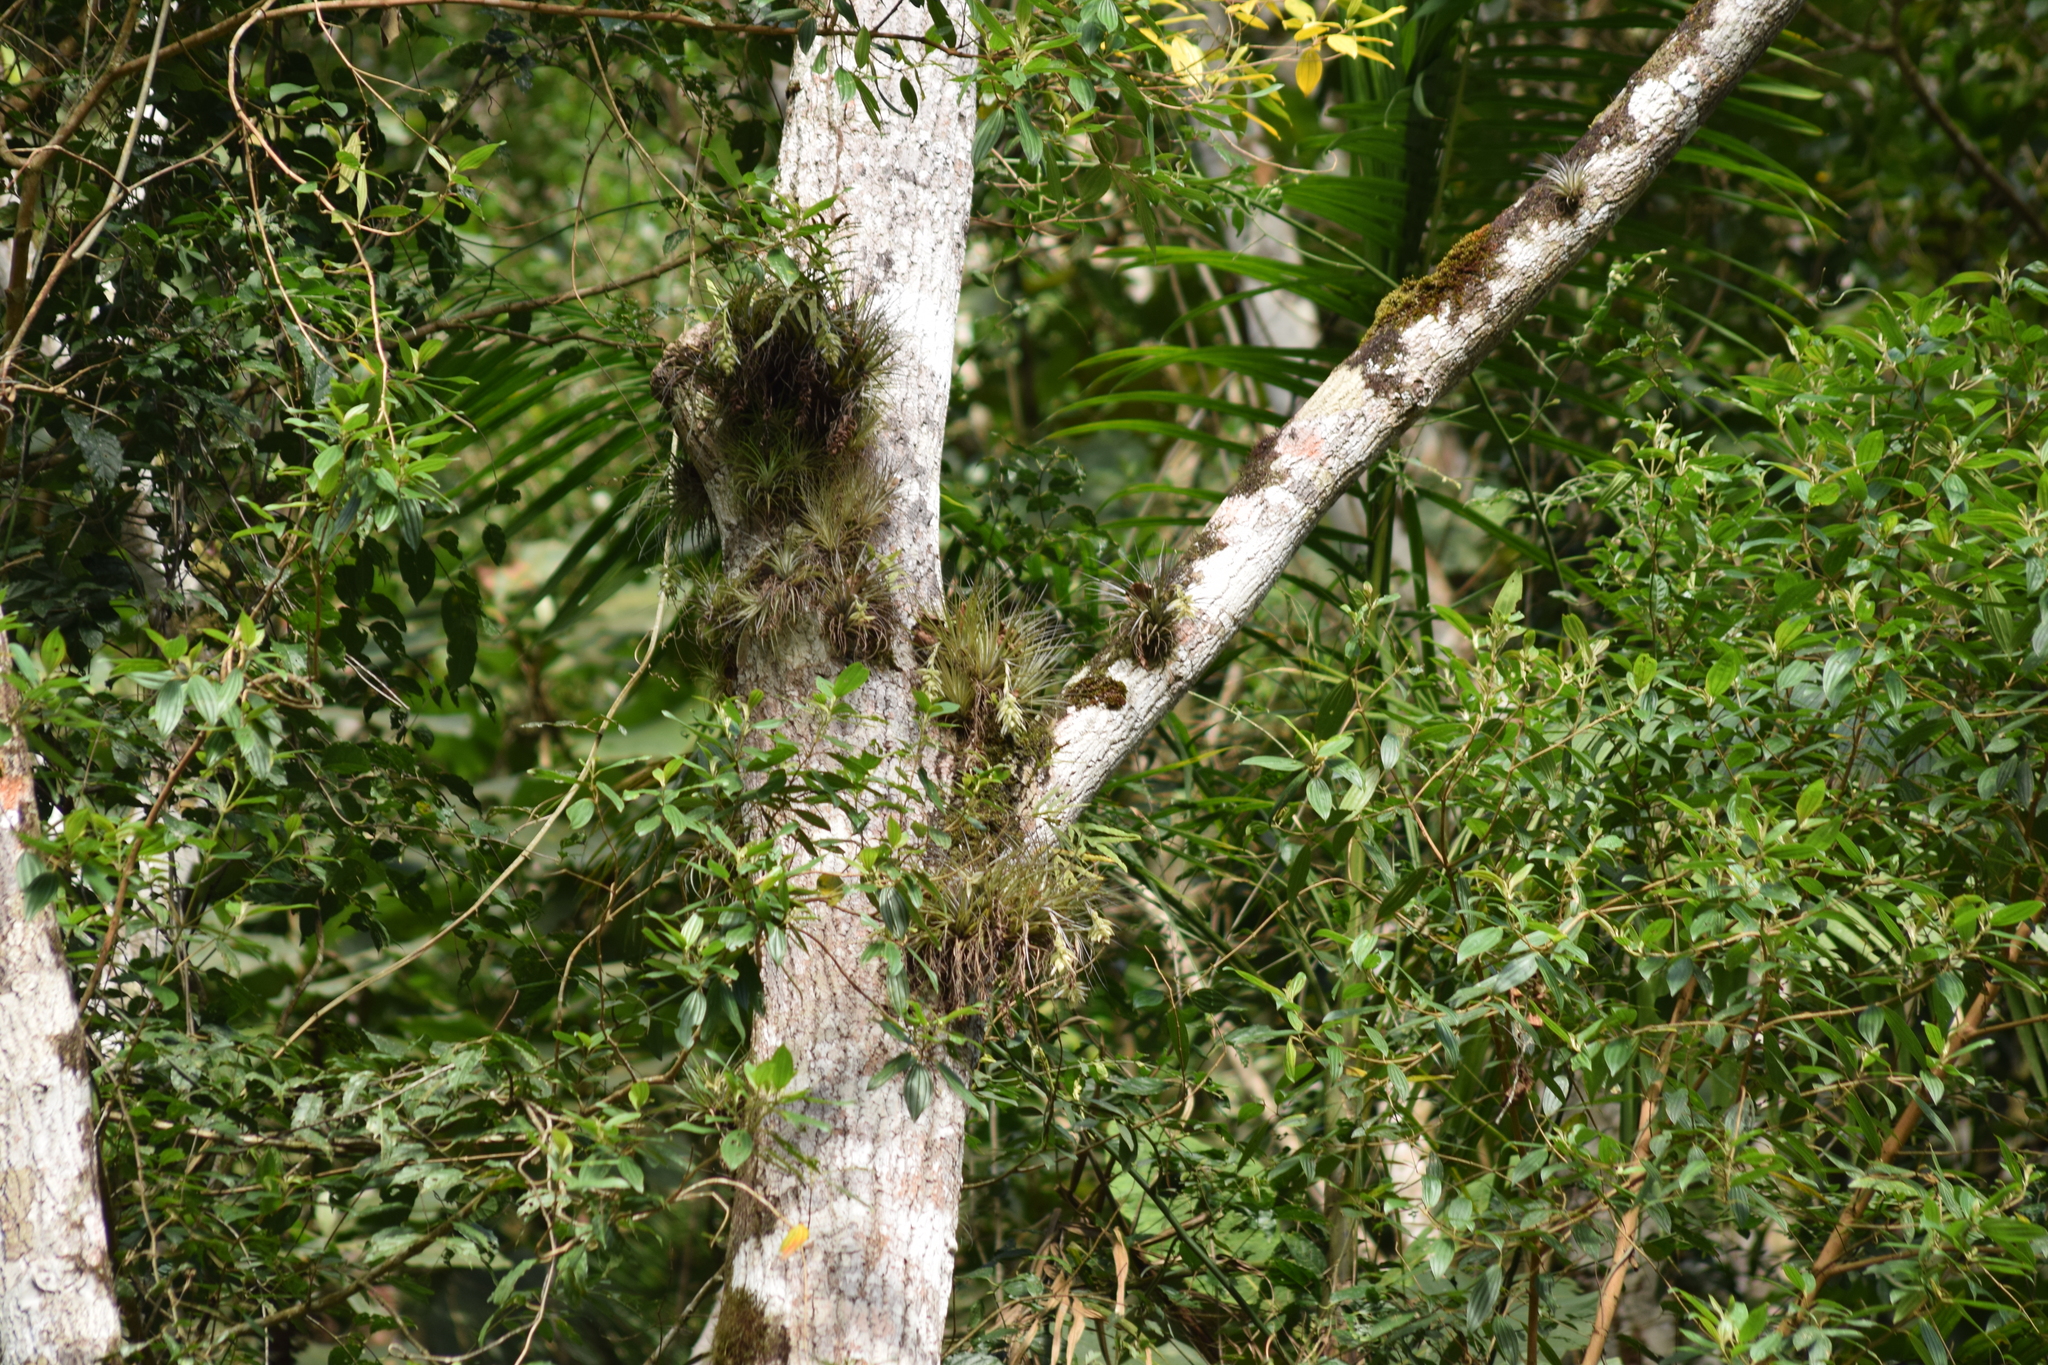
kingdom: Plantae
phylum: Tracheophyta
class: Liliopsida
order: Poales
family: Bromeliaceae
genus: Tillandsia
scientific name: Tillandsia stricta
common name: Airplant
